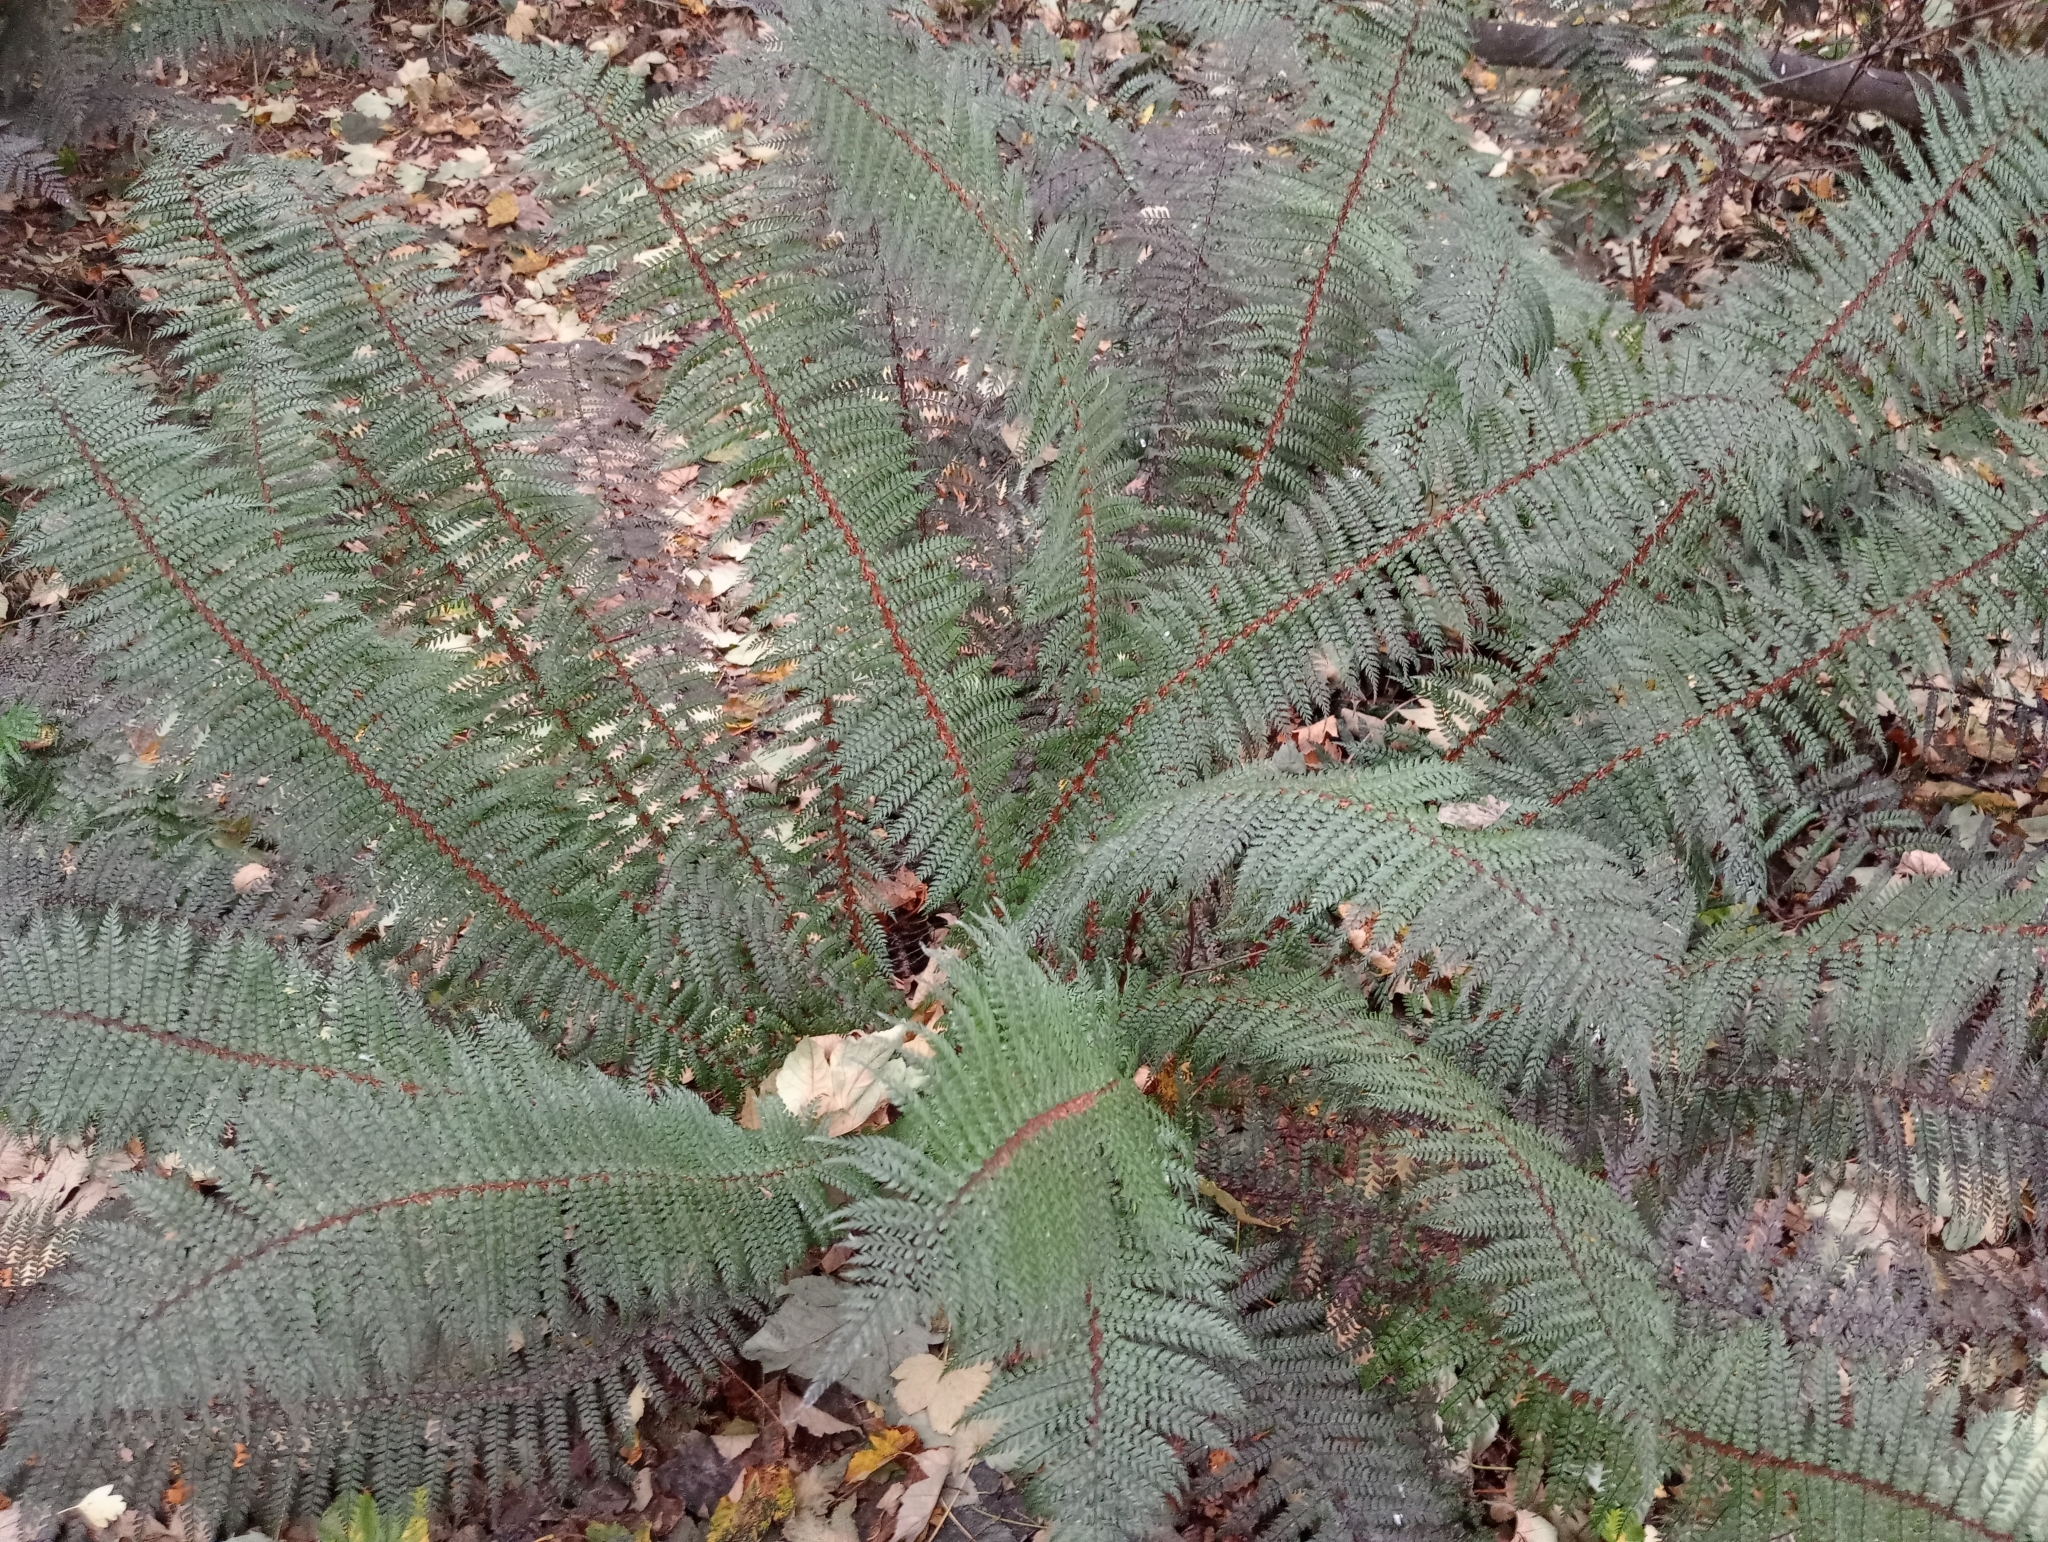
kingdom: Plantae
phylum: Tracheophyta
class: Polypodiopsida
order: Polypodiales
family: Dryopteridaceae
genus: Polystichum
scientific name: Polystichum vestitum
